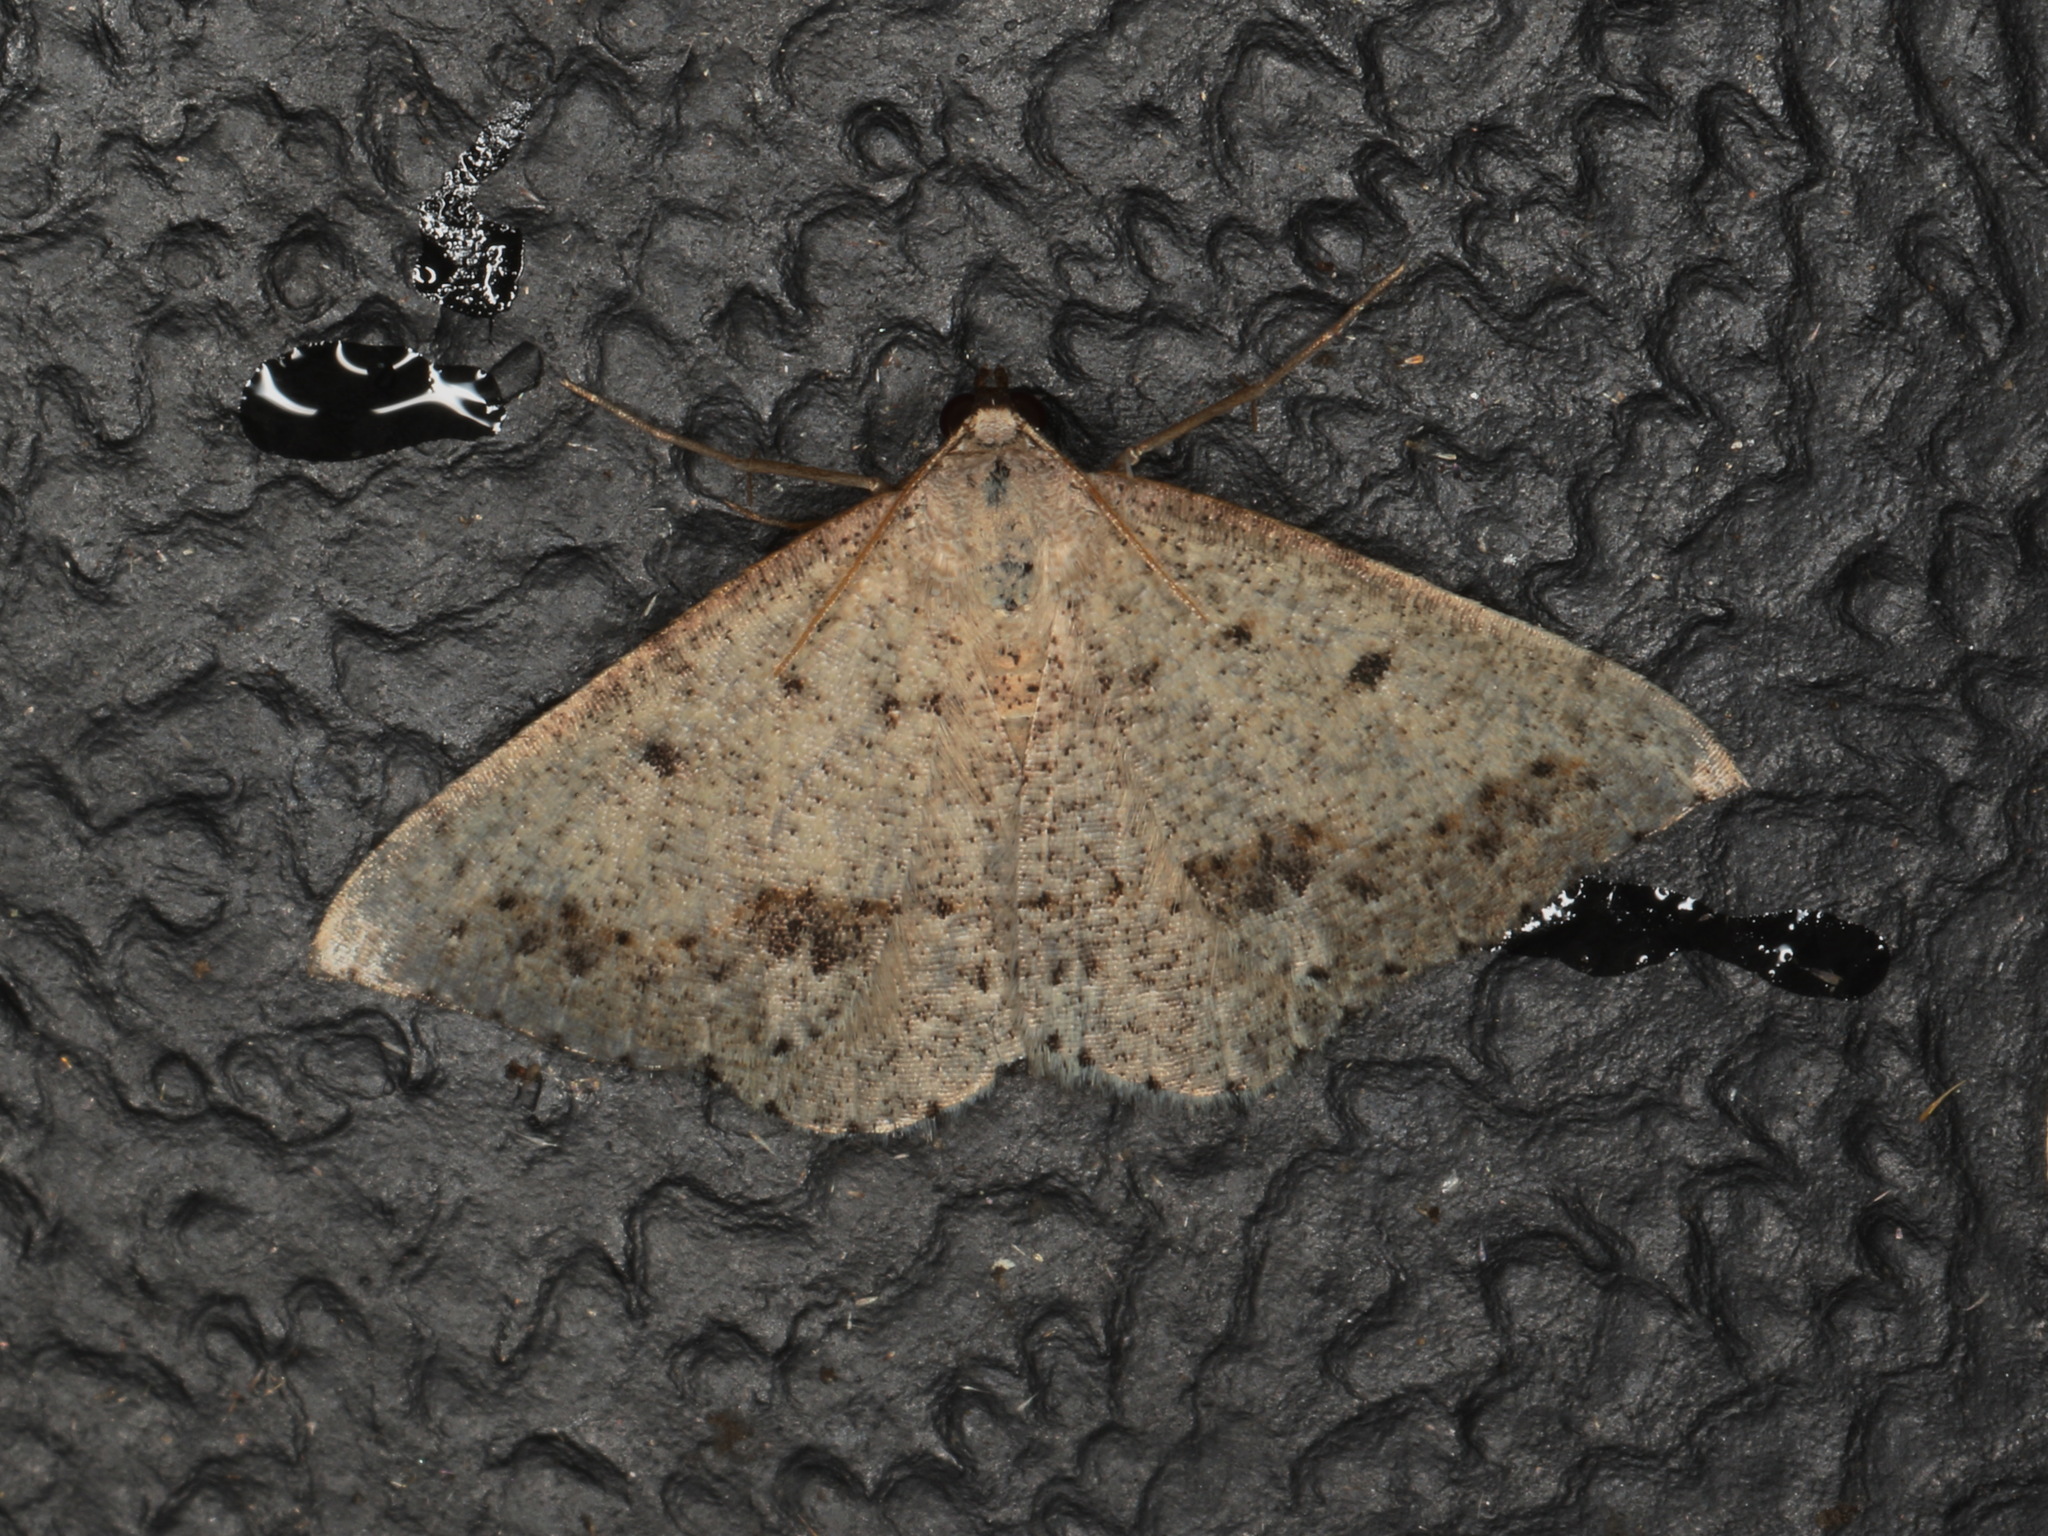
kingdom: Animalia
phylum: Arthropoda
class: Insecta
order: Lepidoptera
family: Geometridae
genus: Taxeotis
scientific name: Taxeotis intextata
